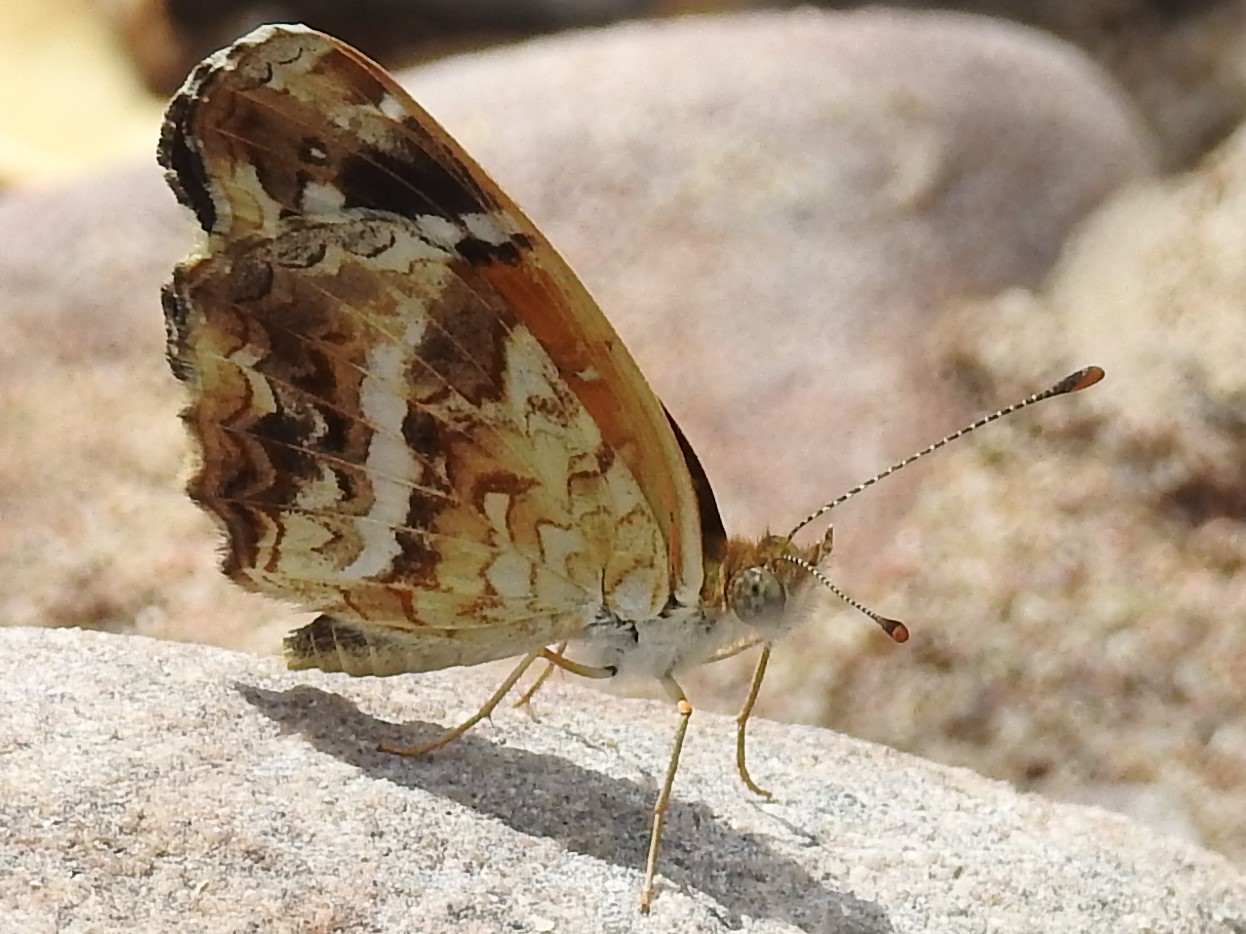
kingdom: Animalia
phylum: Arthropoda
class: Insecta
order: Lepidoptera
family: Nymphalidae
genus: Anthanassa
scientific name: Anthanassa texana
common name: Texan crescent
